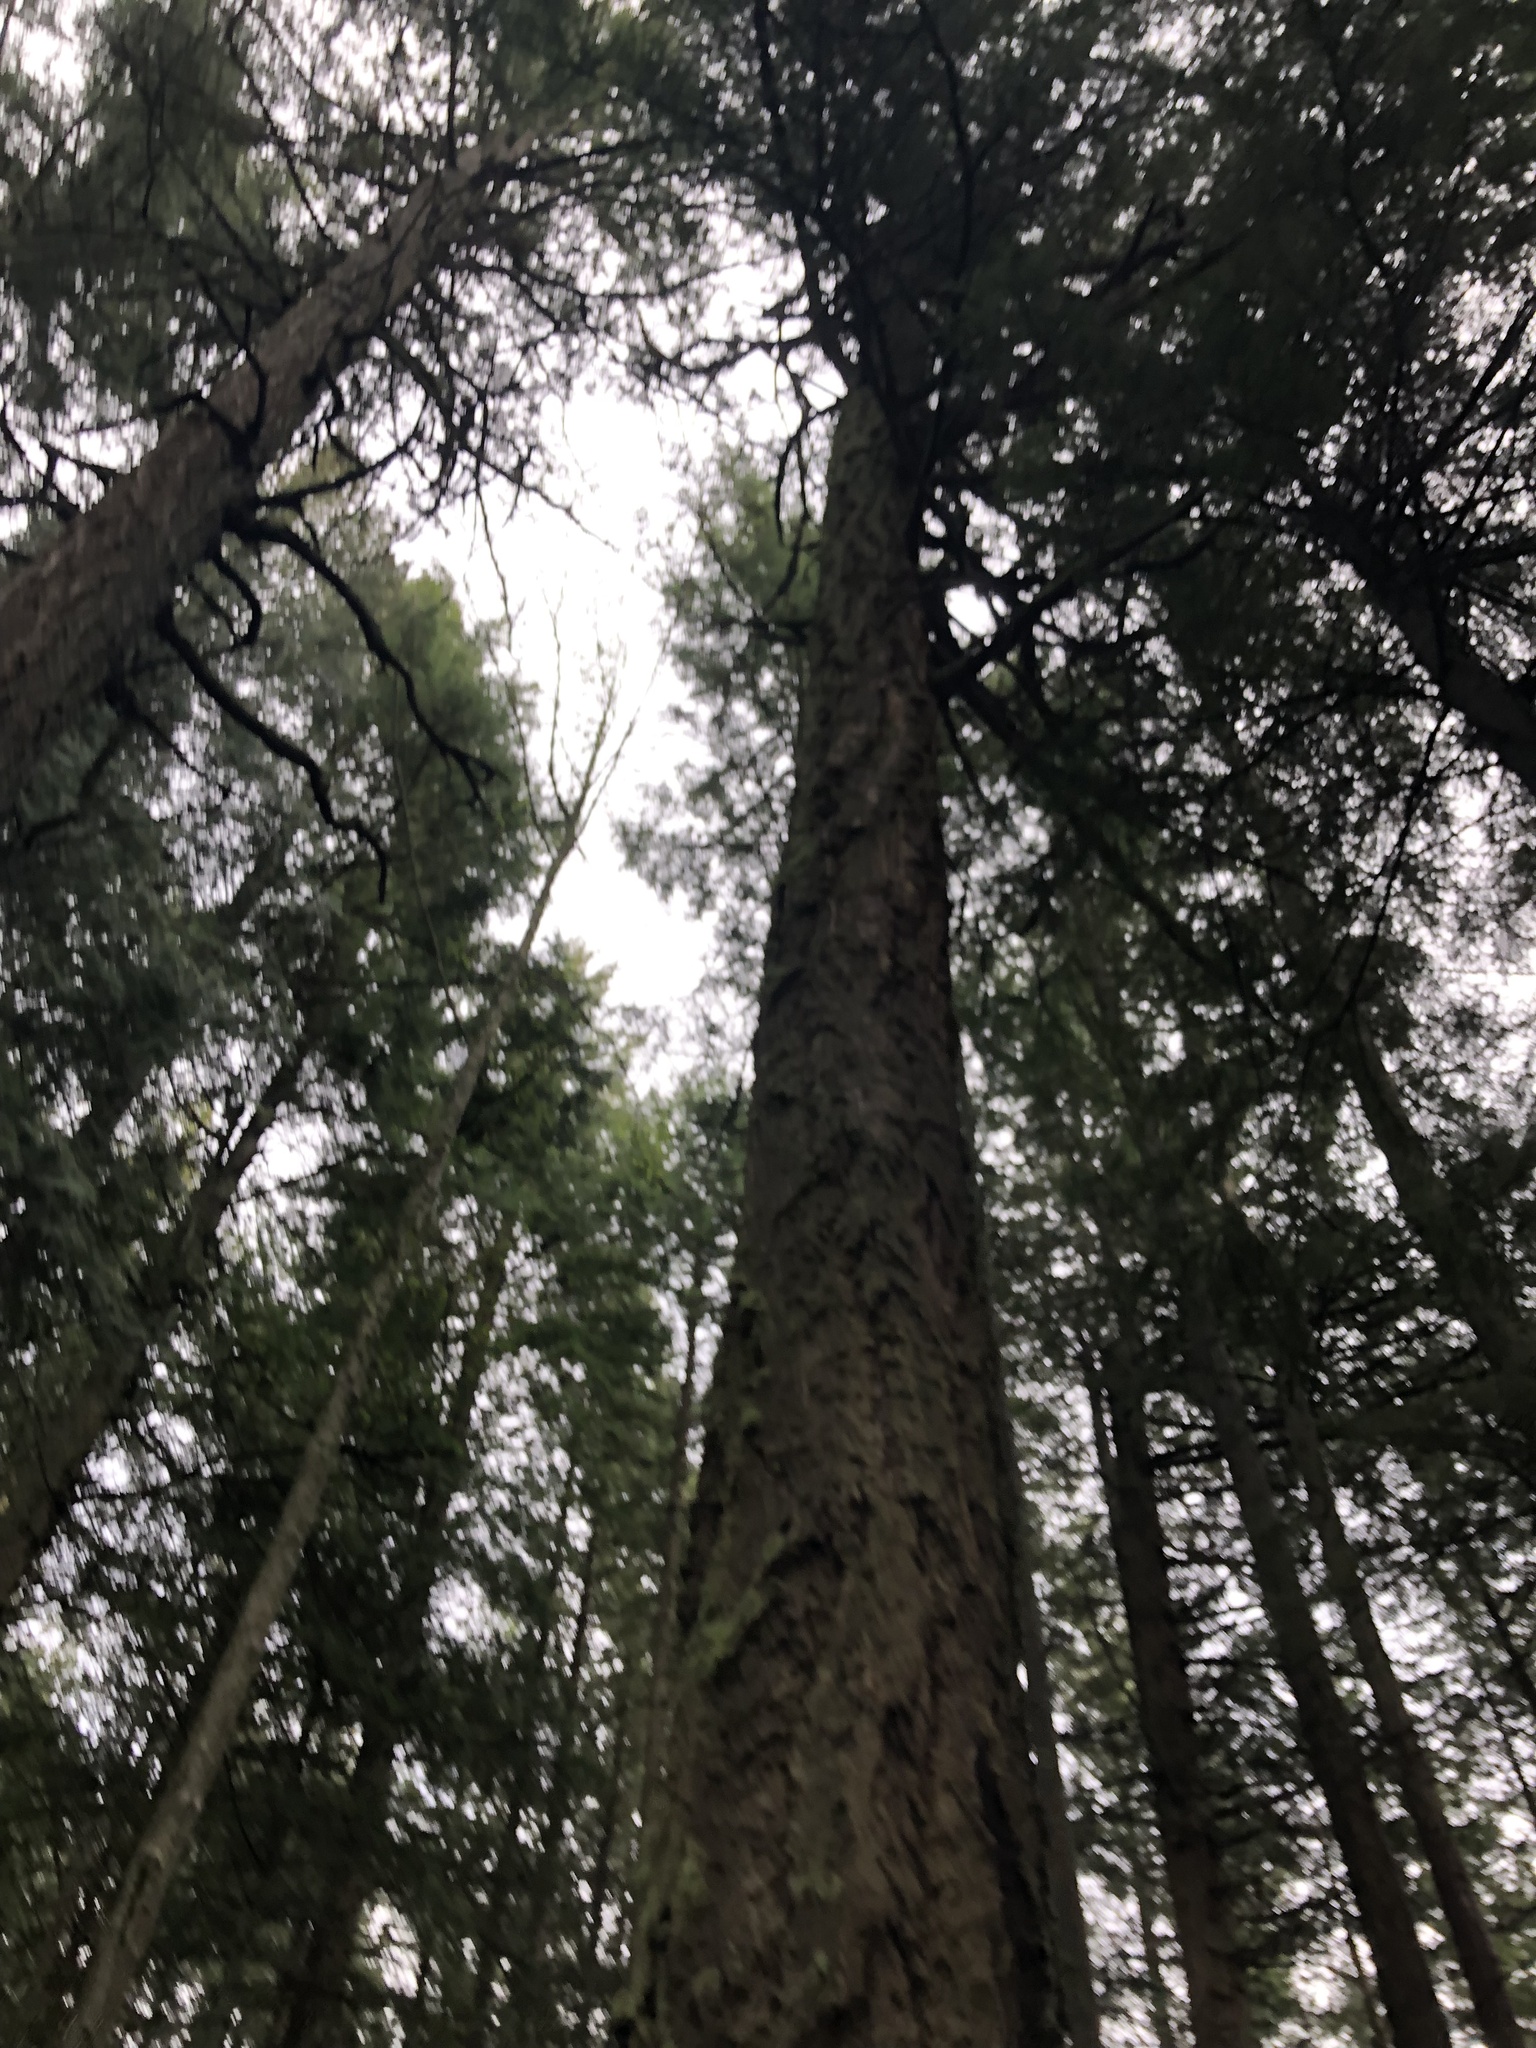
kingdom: Plantae
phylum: Tracheophyta
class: Pinopsida
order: Pinales
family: Pinaceae
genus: Pseudotsuga
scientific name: Pseudotsuga menziesii
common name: Douglas fir
